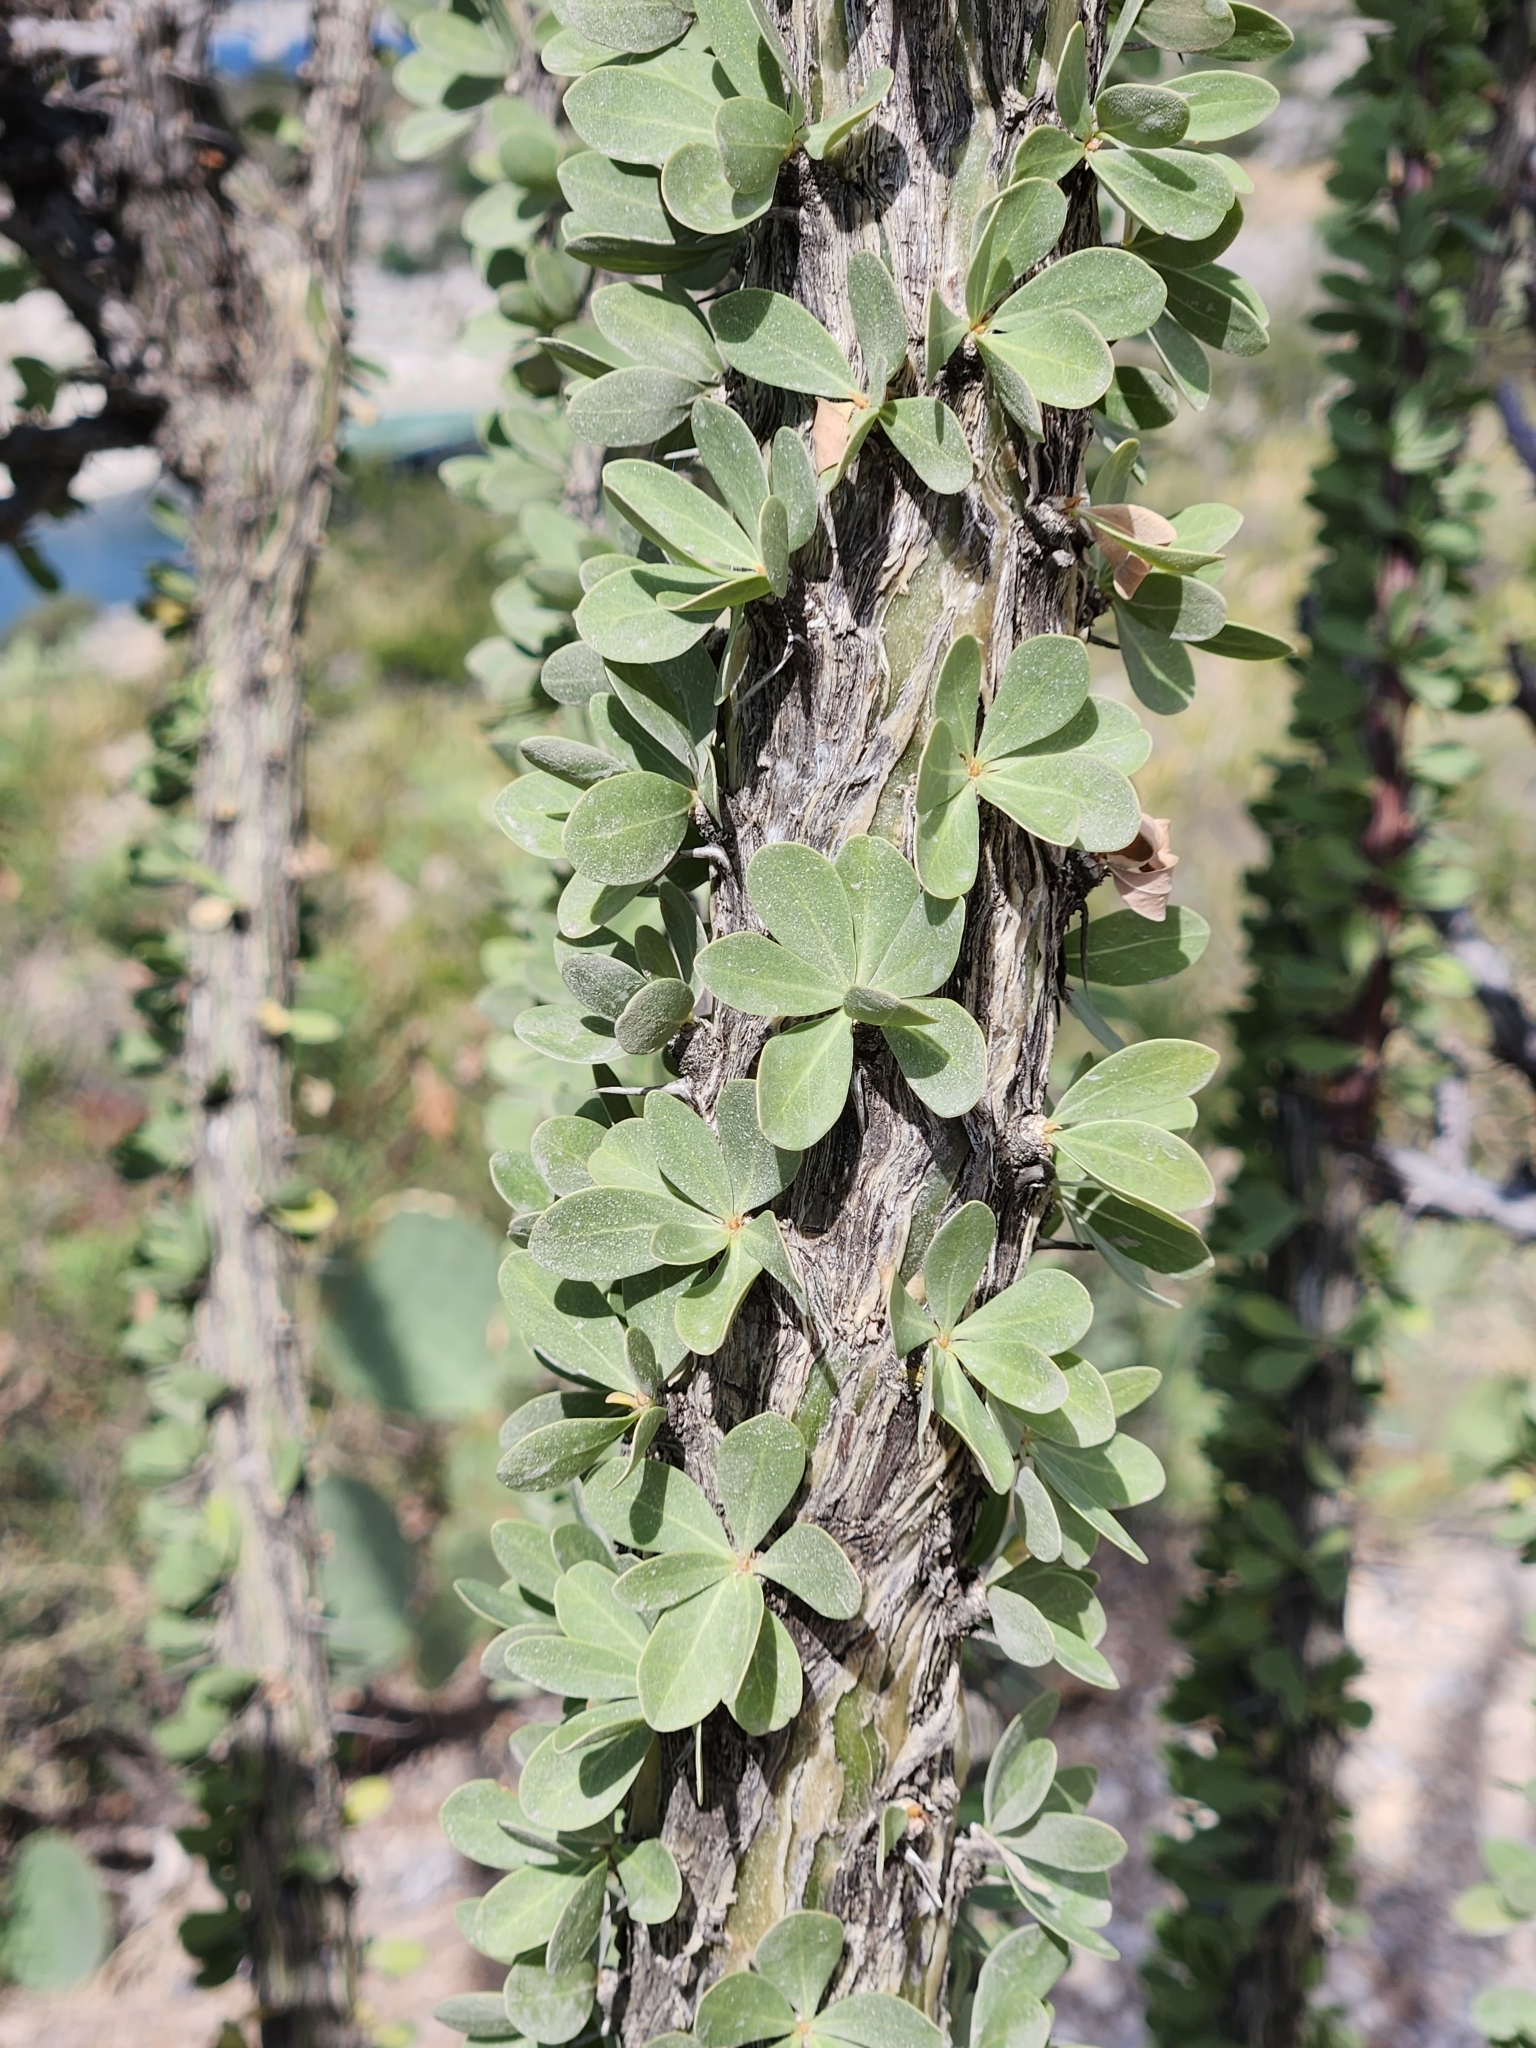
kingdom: Plantae
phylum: Tracheophyta
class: Magnoliopsida
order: Ericales
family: Fouquieriaceae
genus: Fouquieria
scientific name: Fouquieria splendens
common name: Vine-cactus
